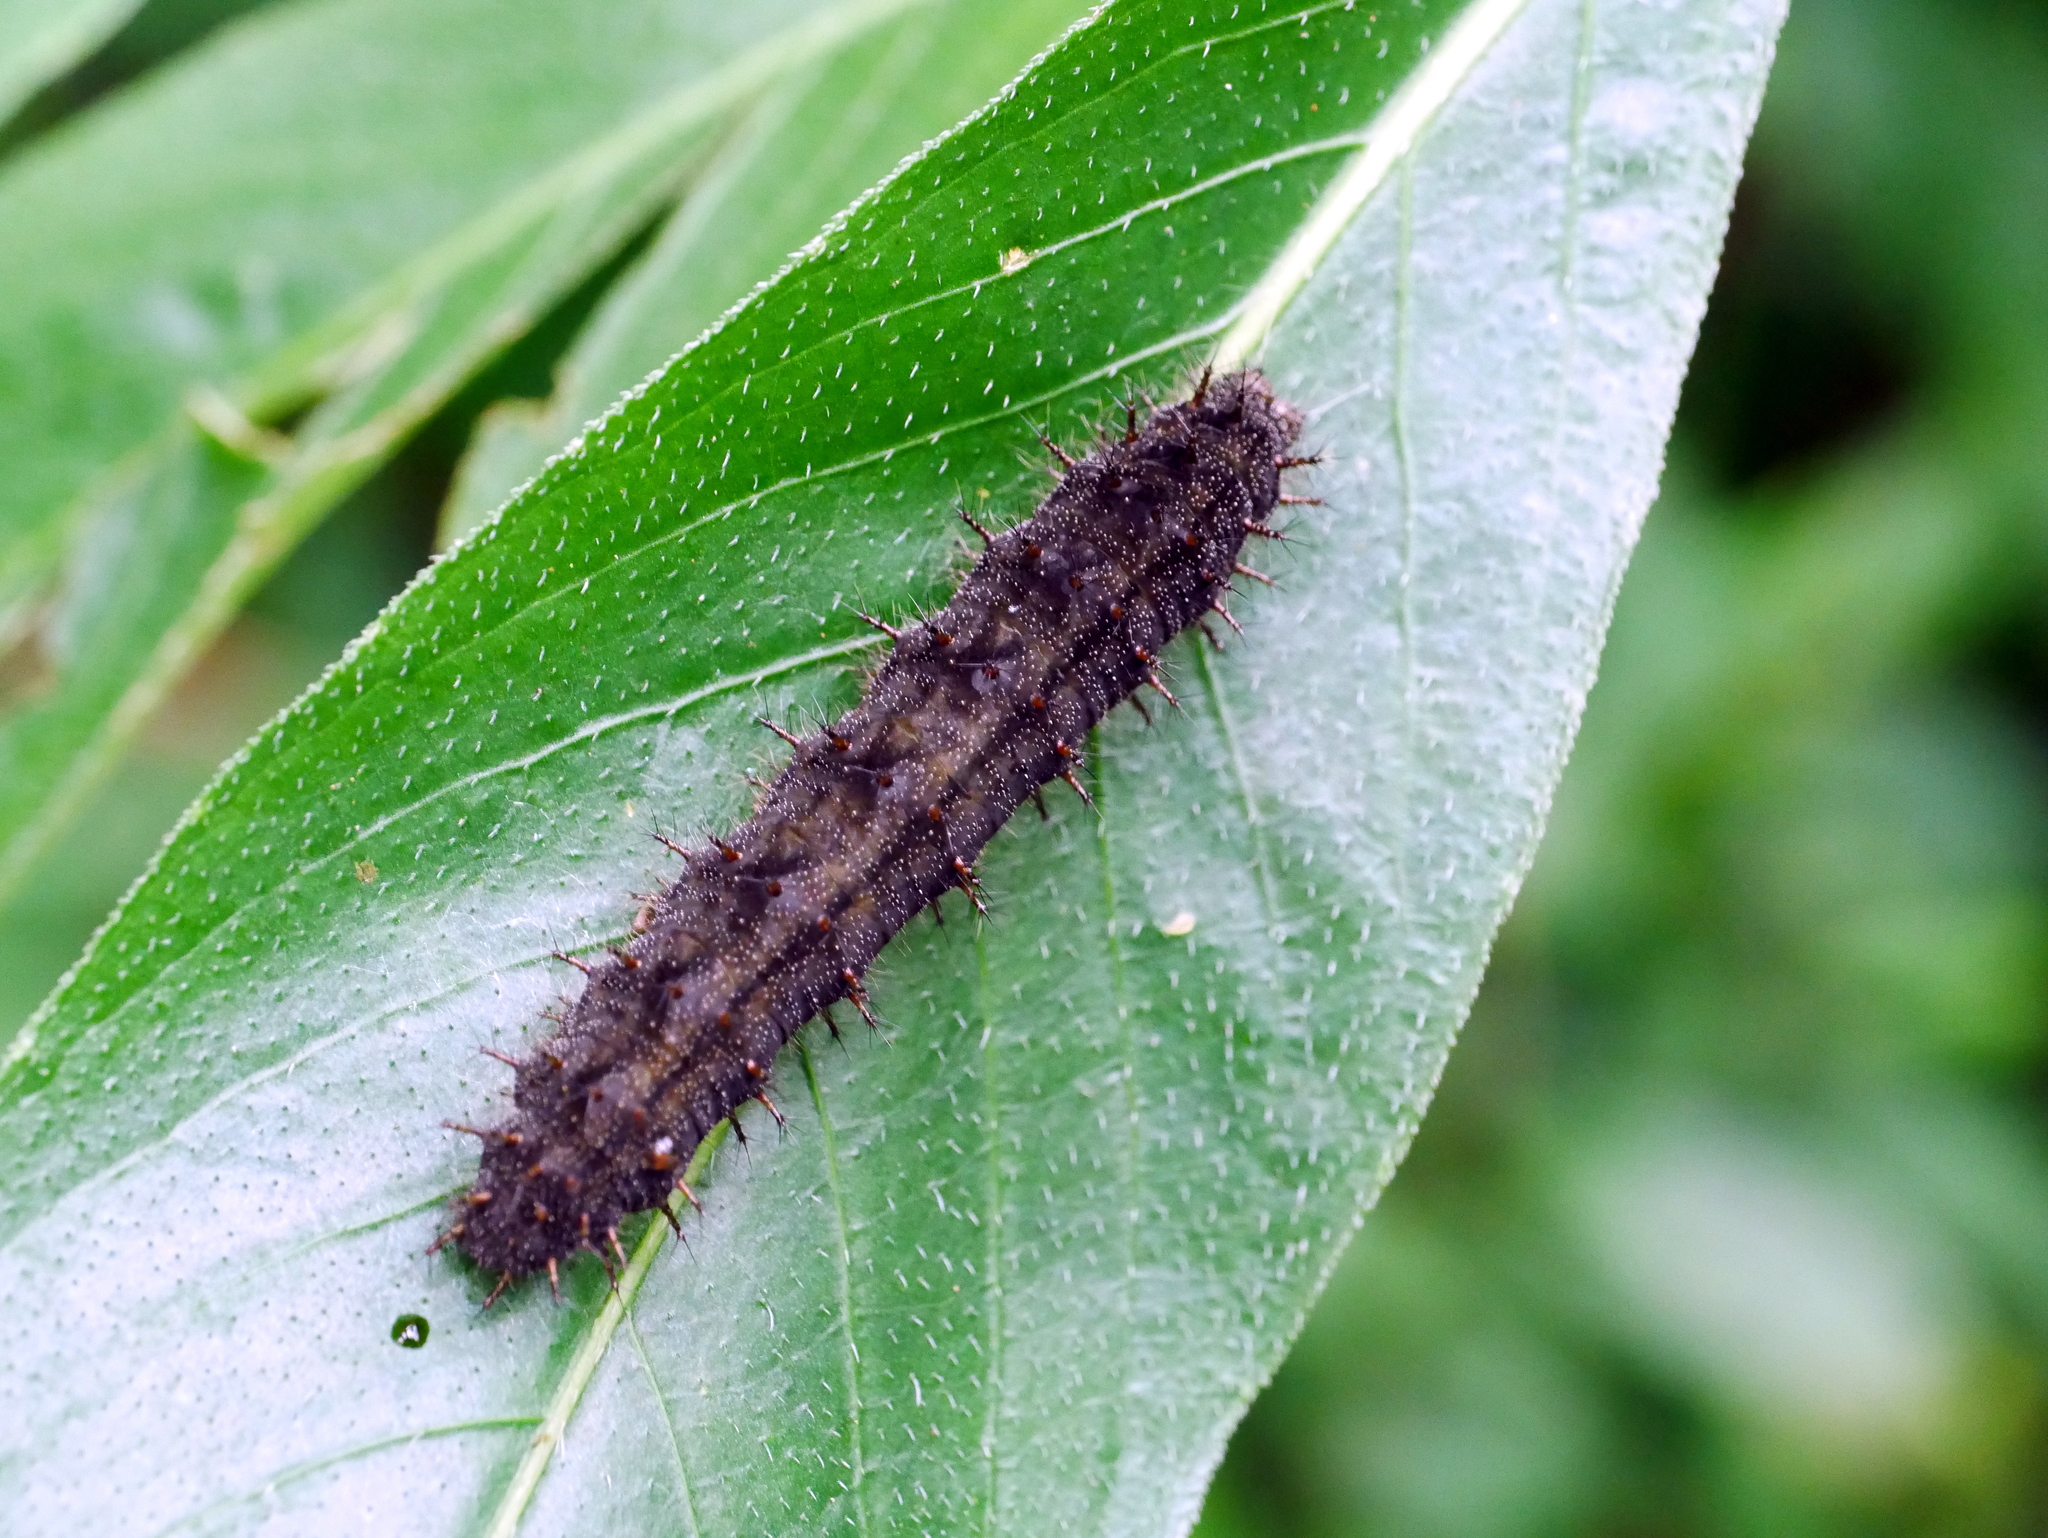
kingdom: Animalia
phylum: Arthropoda
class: Insecta
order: Lepidoptera
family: Nymphalidae
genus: Junonia
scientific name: Junonia iphita
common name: Chocolate pansy
